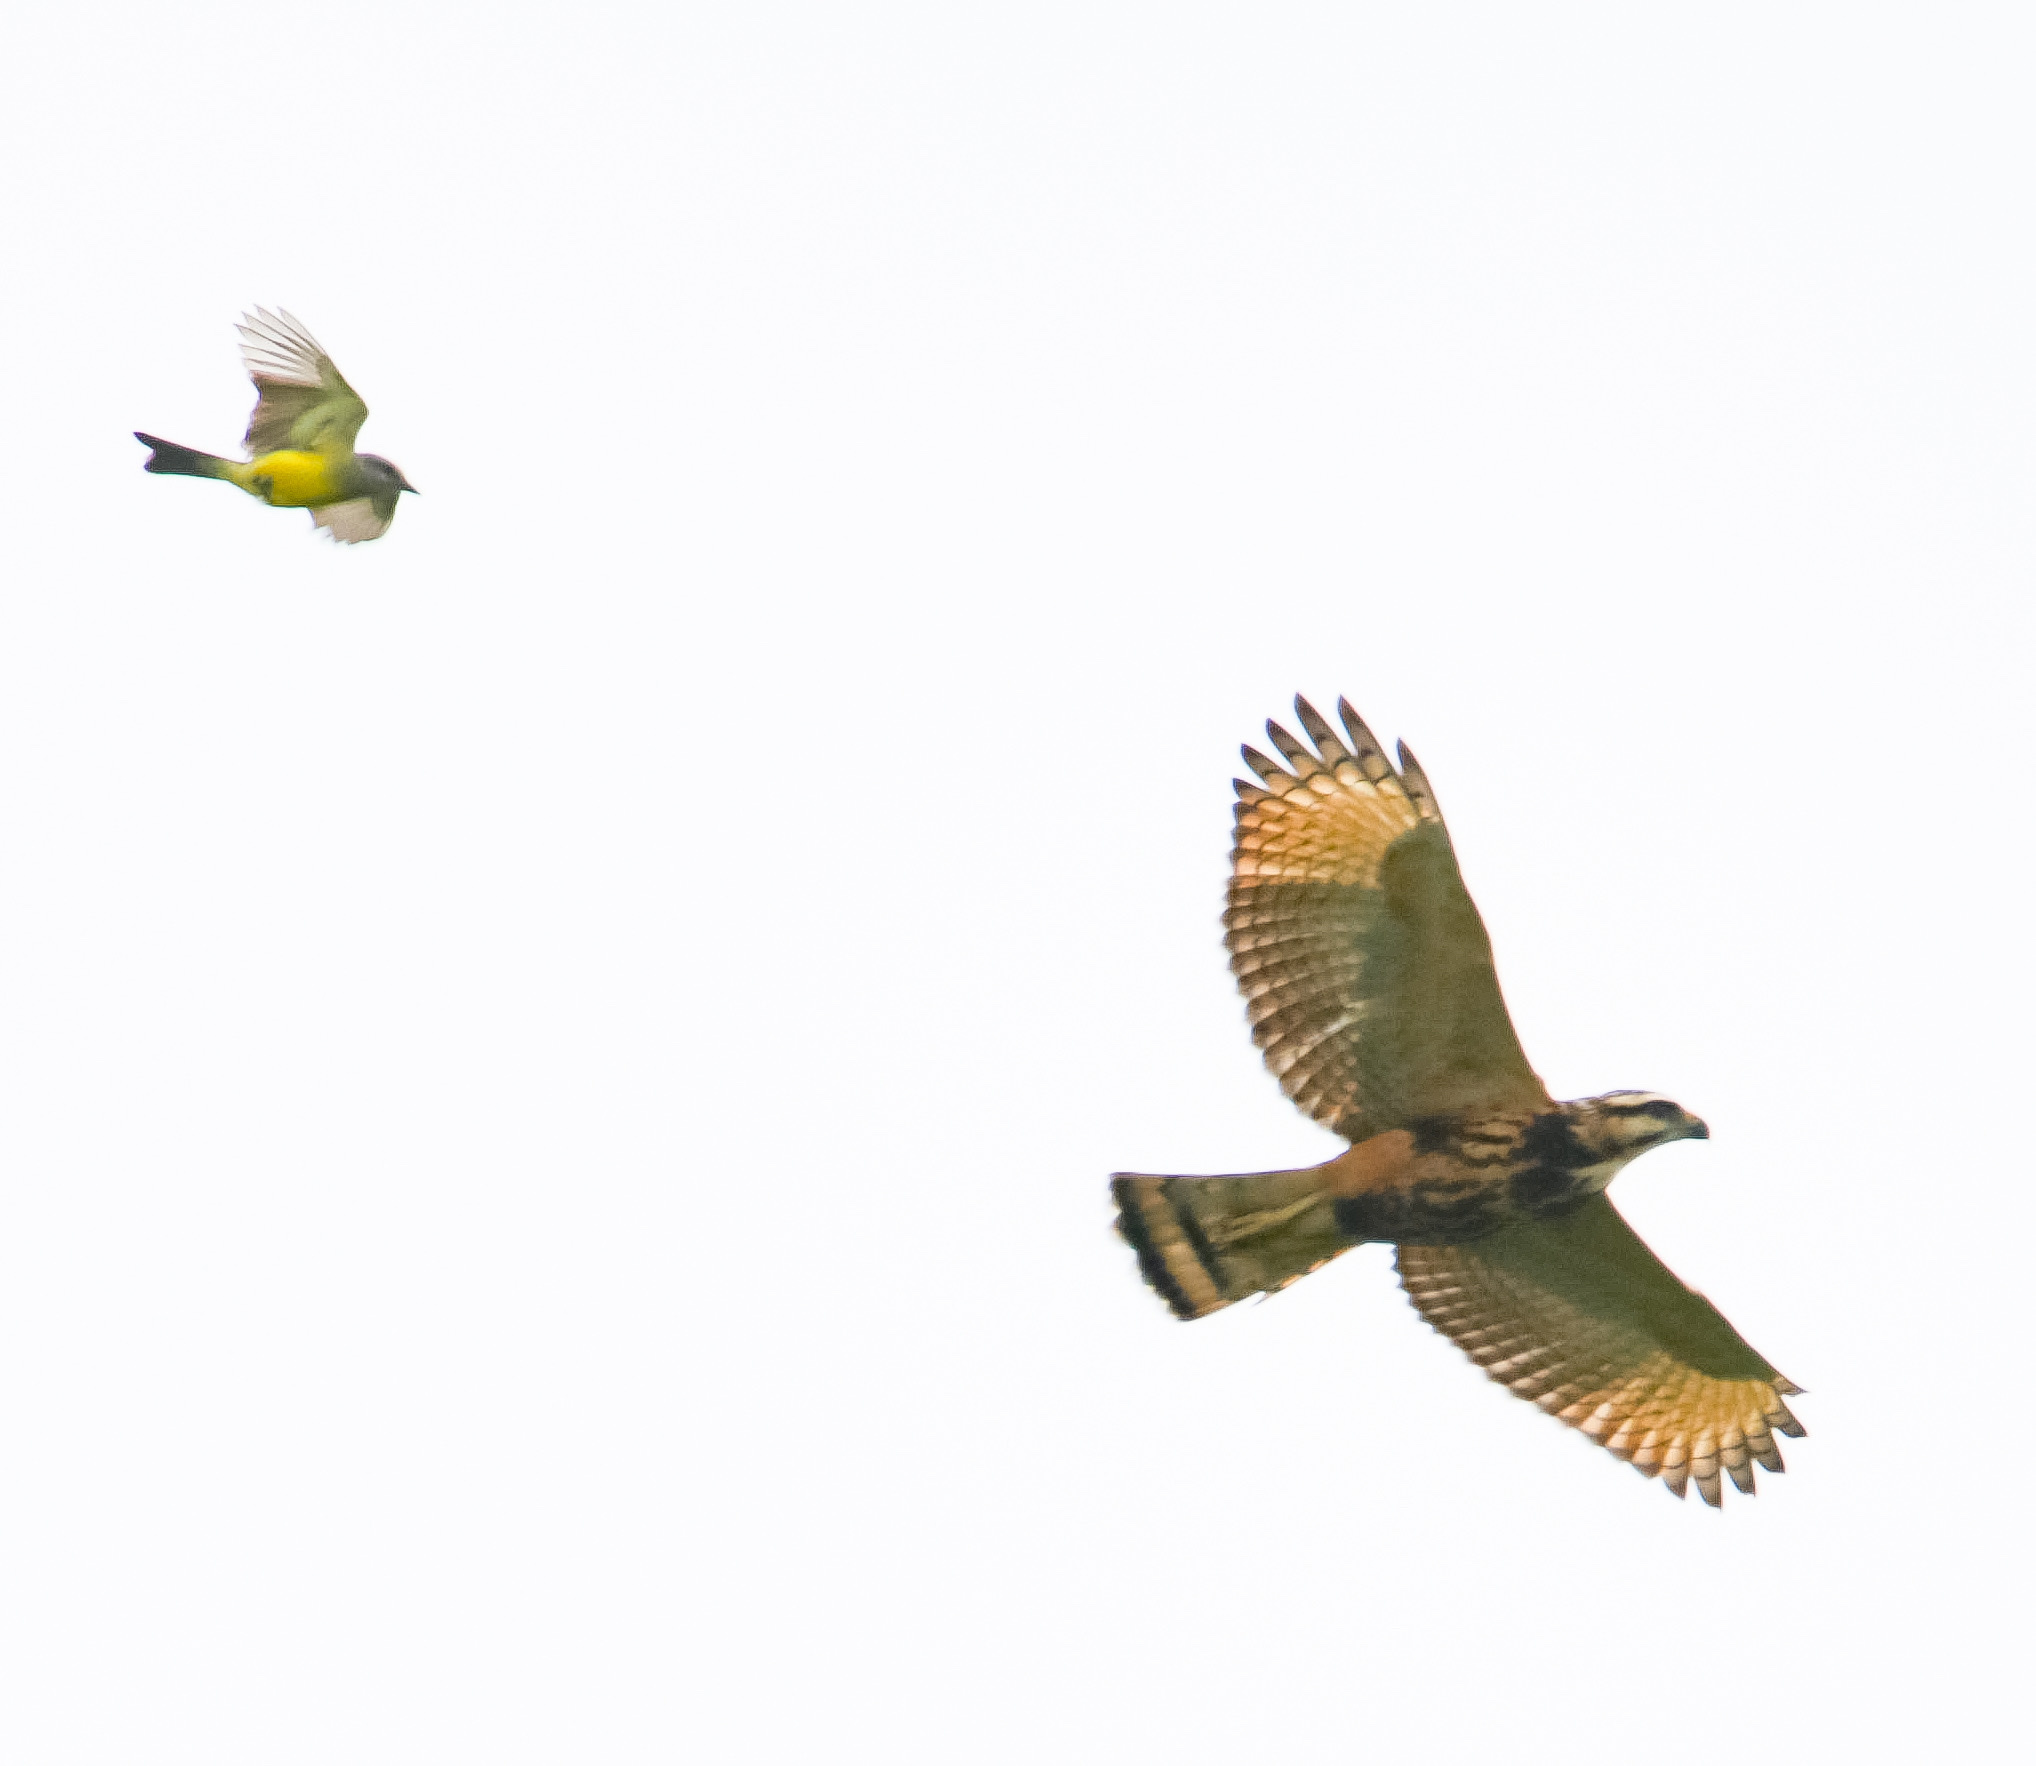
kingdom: Animalia
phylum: Chordata
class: Aves
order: Accipitriformes
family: Accipitridae
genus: Buteo
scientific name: Buteo nitidus
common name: Grey-lined hawk
